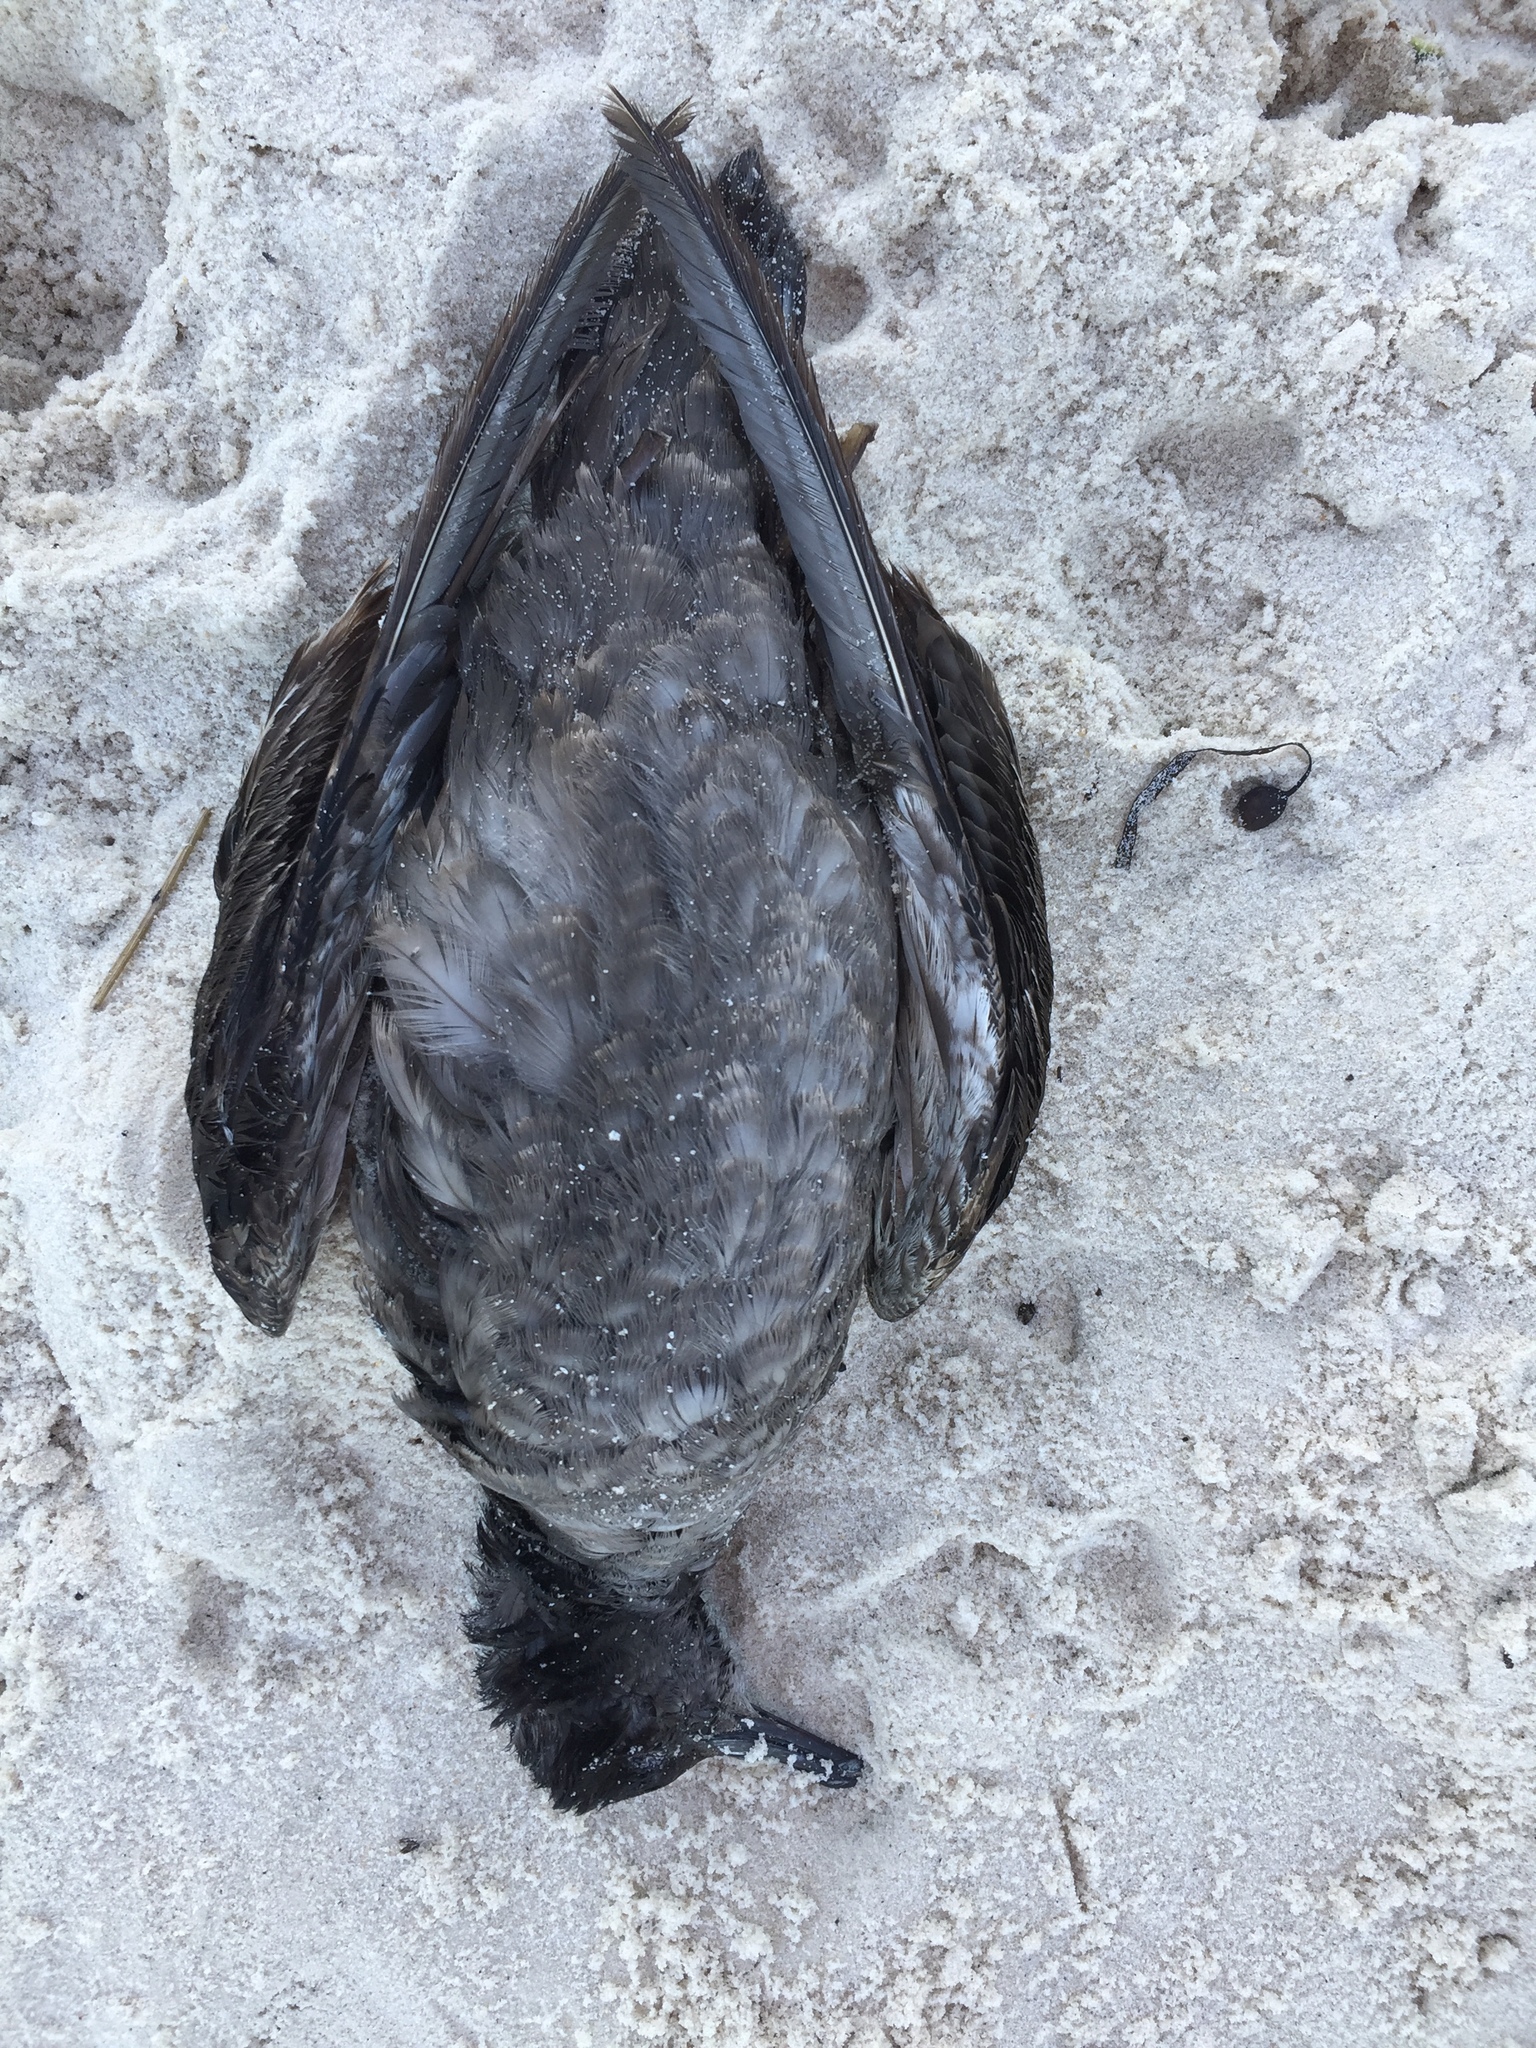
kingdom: Animalia
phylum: Chordata
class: Aves
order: Procellariiformes
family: Procellariidae
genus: Puffinus
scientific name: Puffinus griseus
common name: Sooty shearwater
